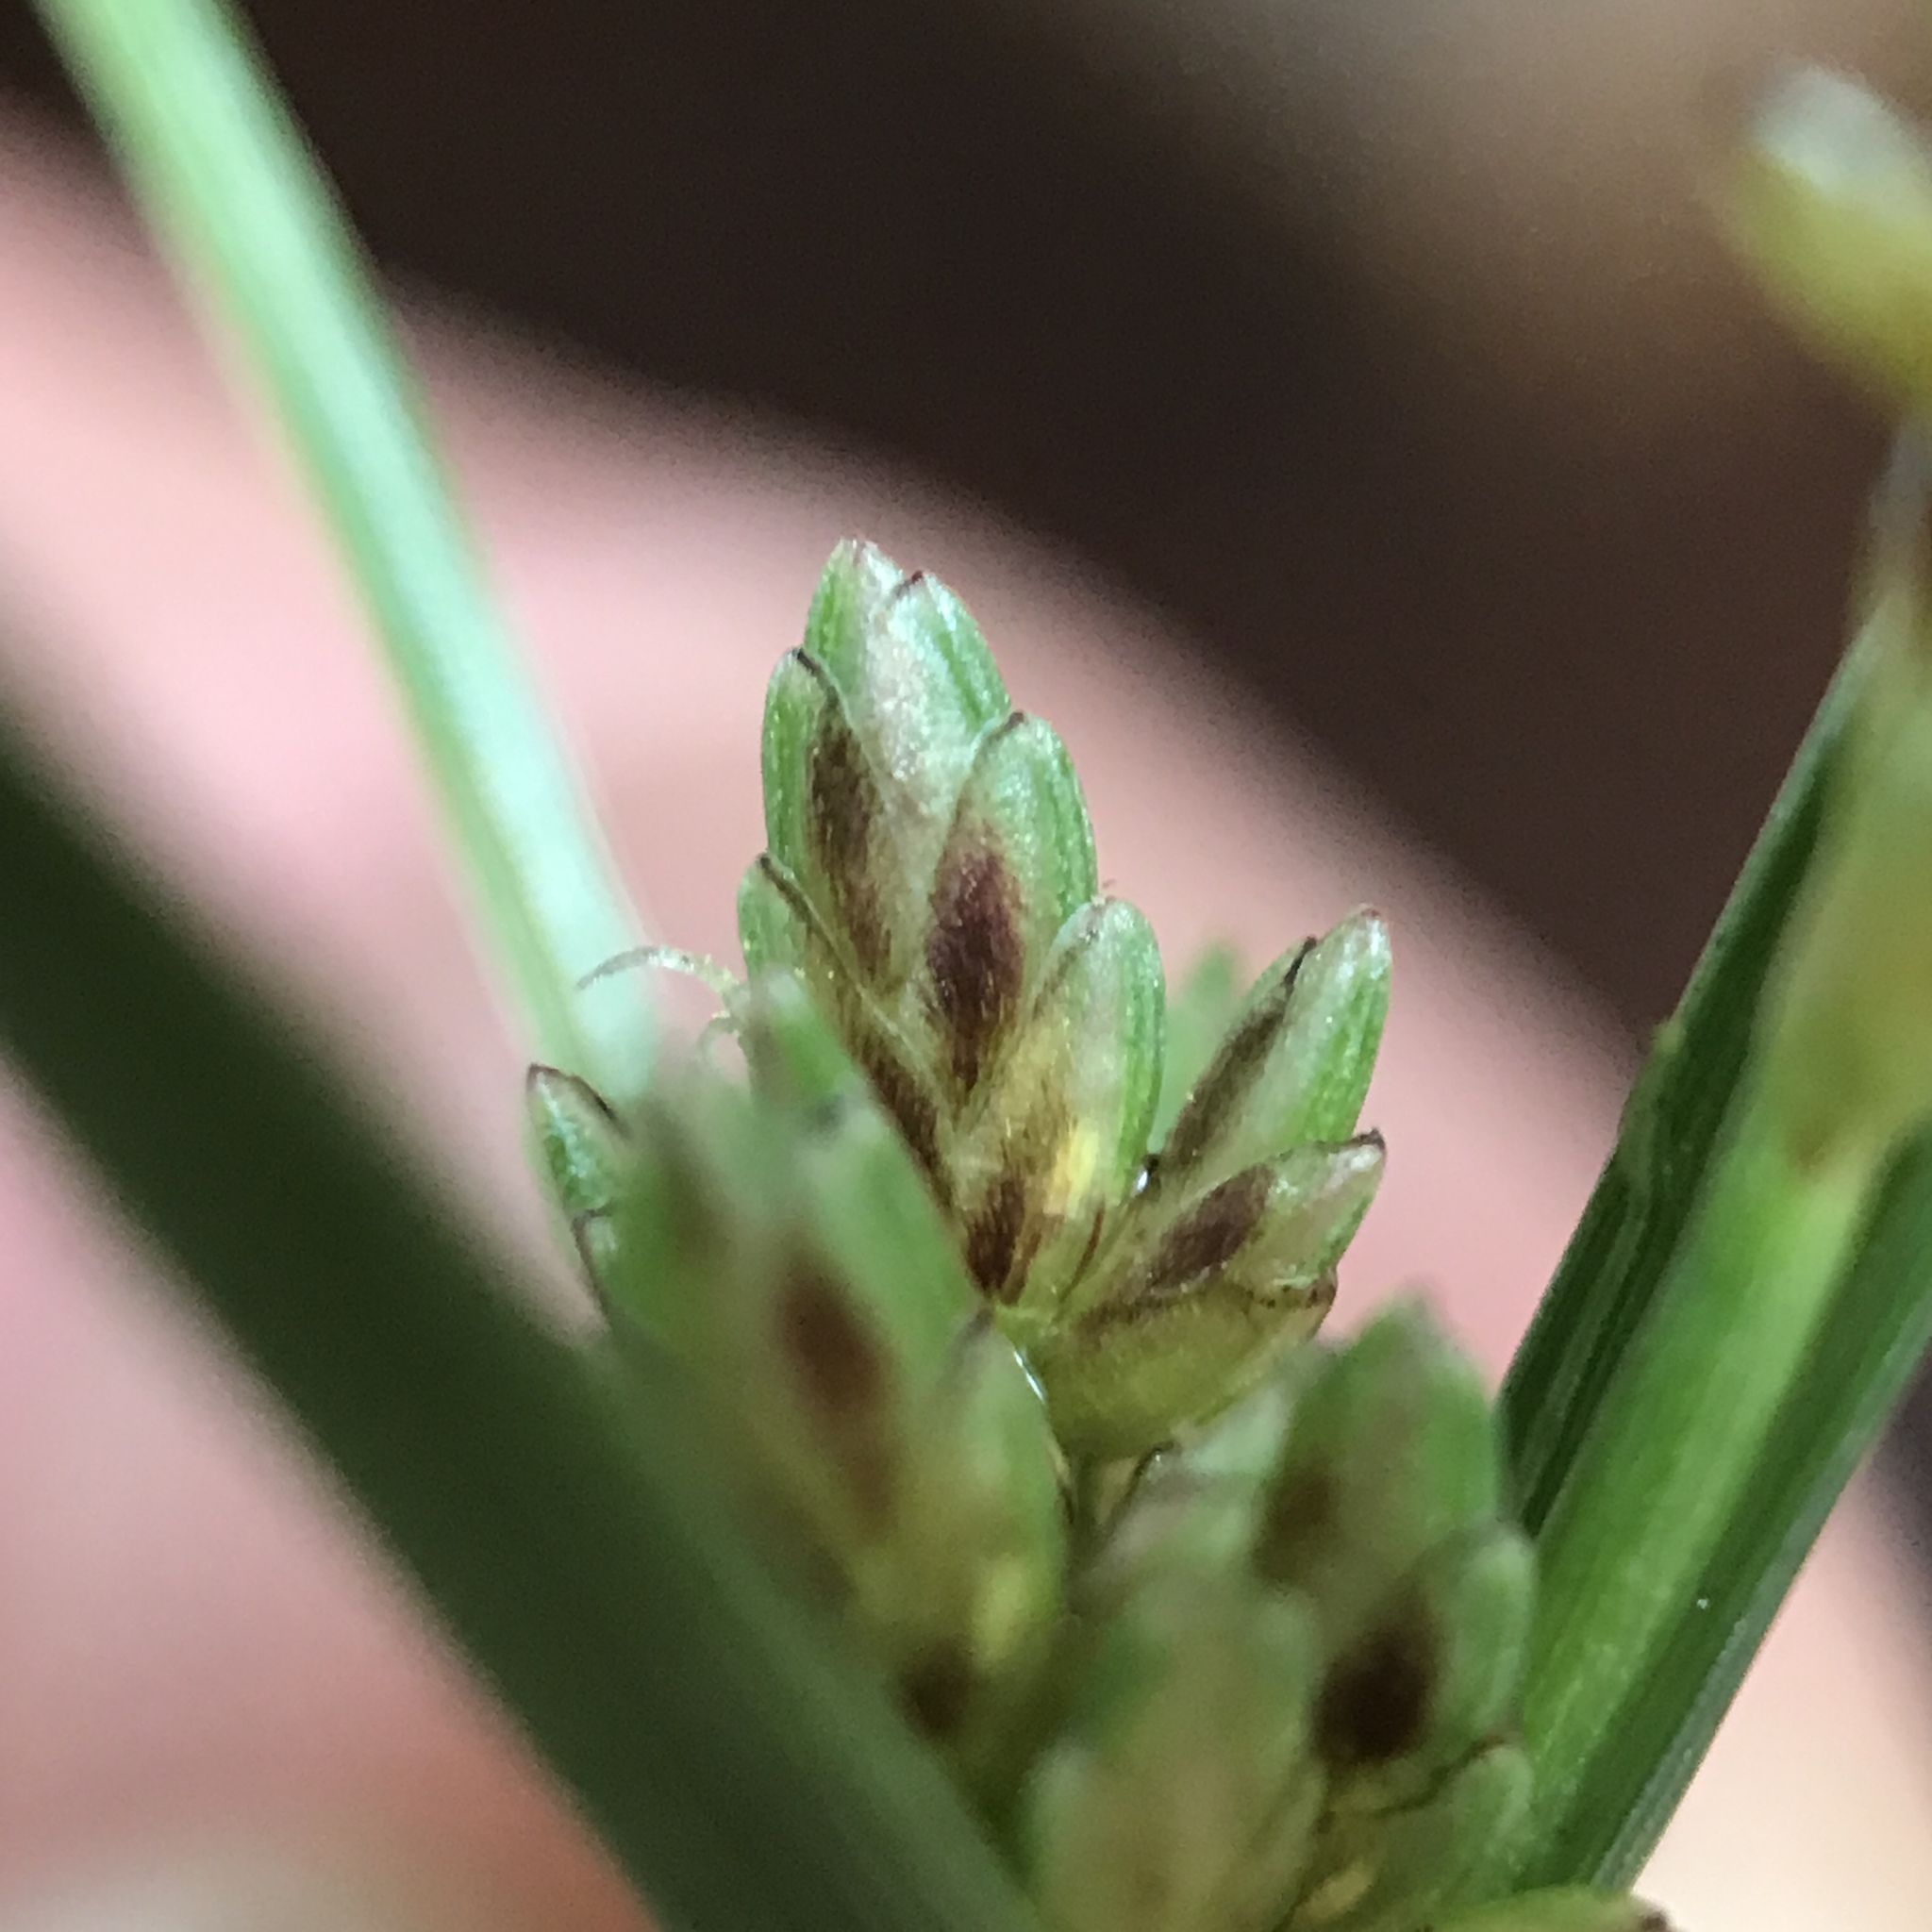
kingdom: Plantae
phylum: Tracheophyta
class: Liliopsida
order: Poales
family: Cyperaceae
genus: Cyperus
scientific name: Cyperus bipartitus
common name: Brook flatsedge
